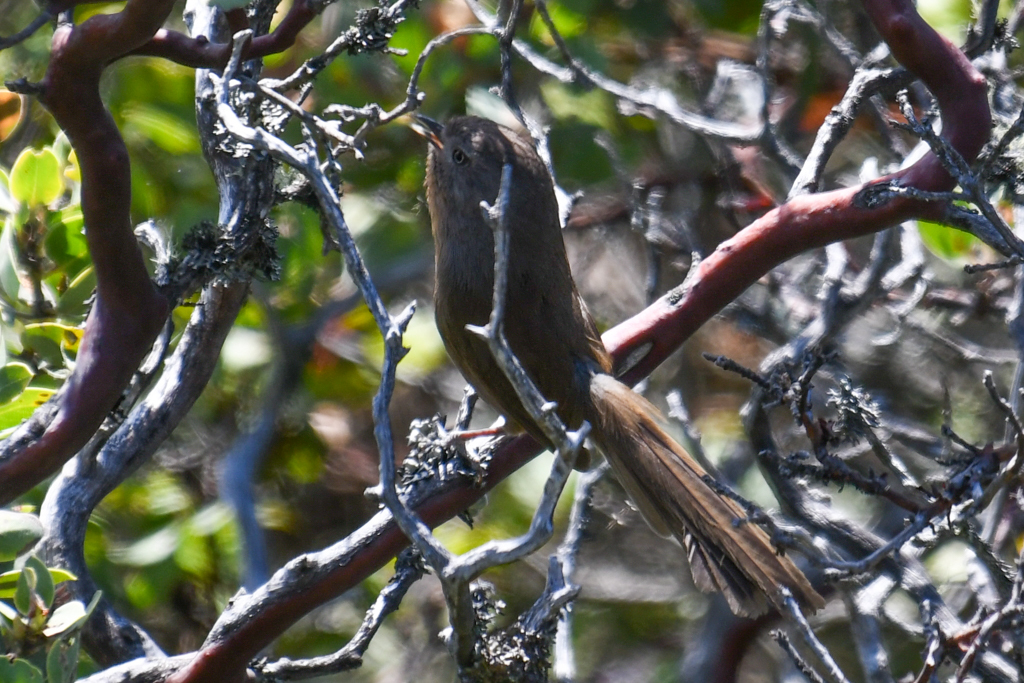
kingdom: Animalia
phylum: Chordata
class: Aves
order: Passeriformes
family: Sylviidae
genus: Chamaea
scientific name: Chamaea fasciata
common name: Wrentit
